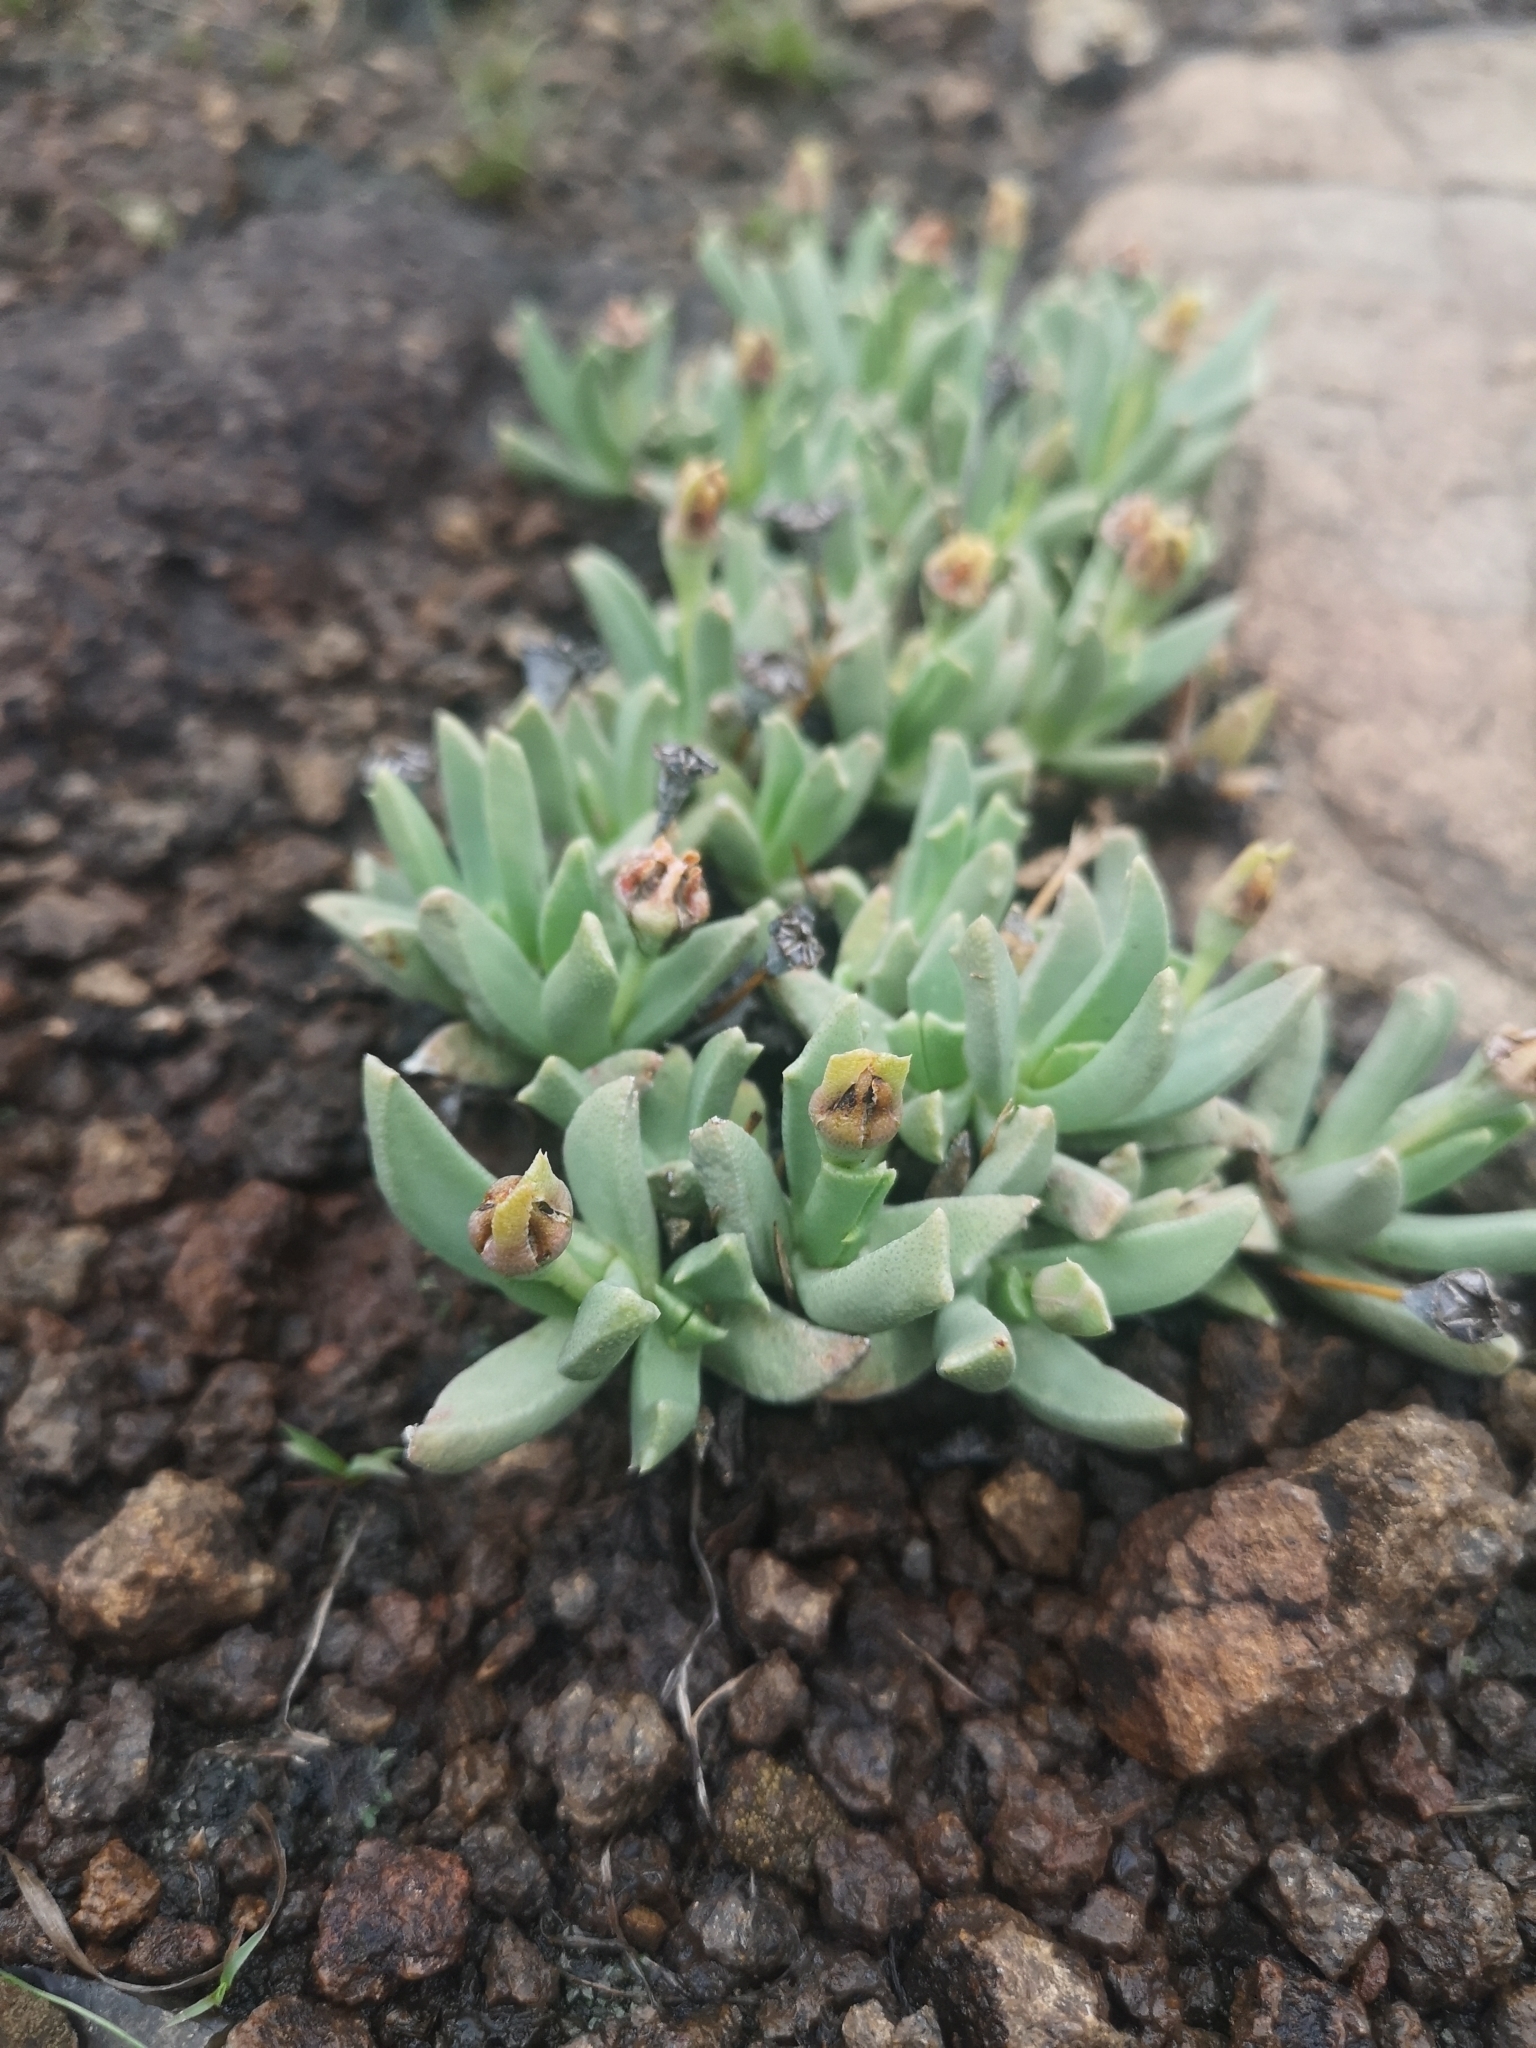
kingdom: Plantae
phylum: Tracheophyta
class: Magnoliopsida
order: Caryophyllales
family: Aizoaceae
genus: Dracophilus
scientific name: Dracophilus Chasmatophyllum musculinum
